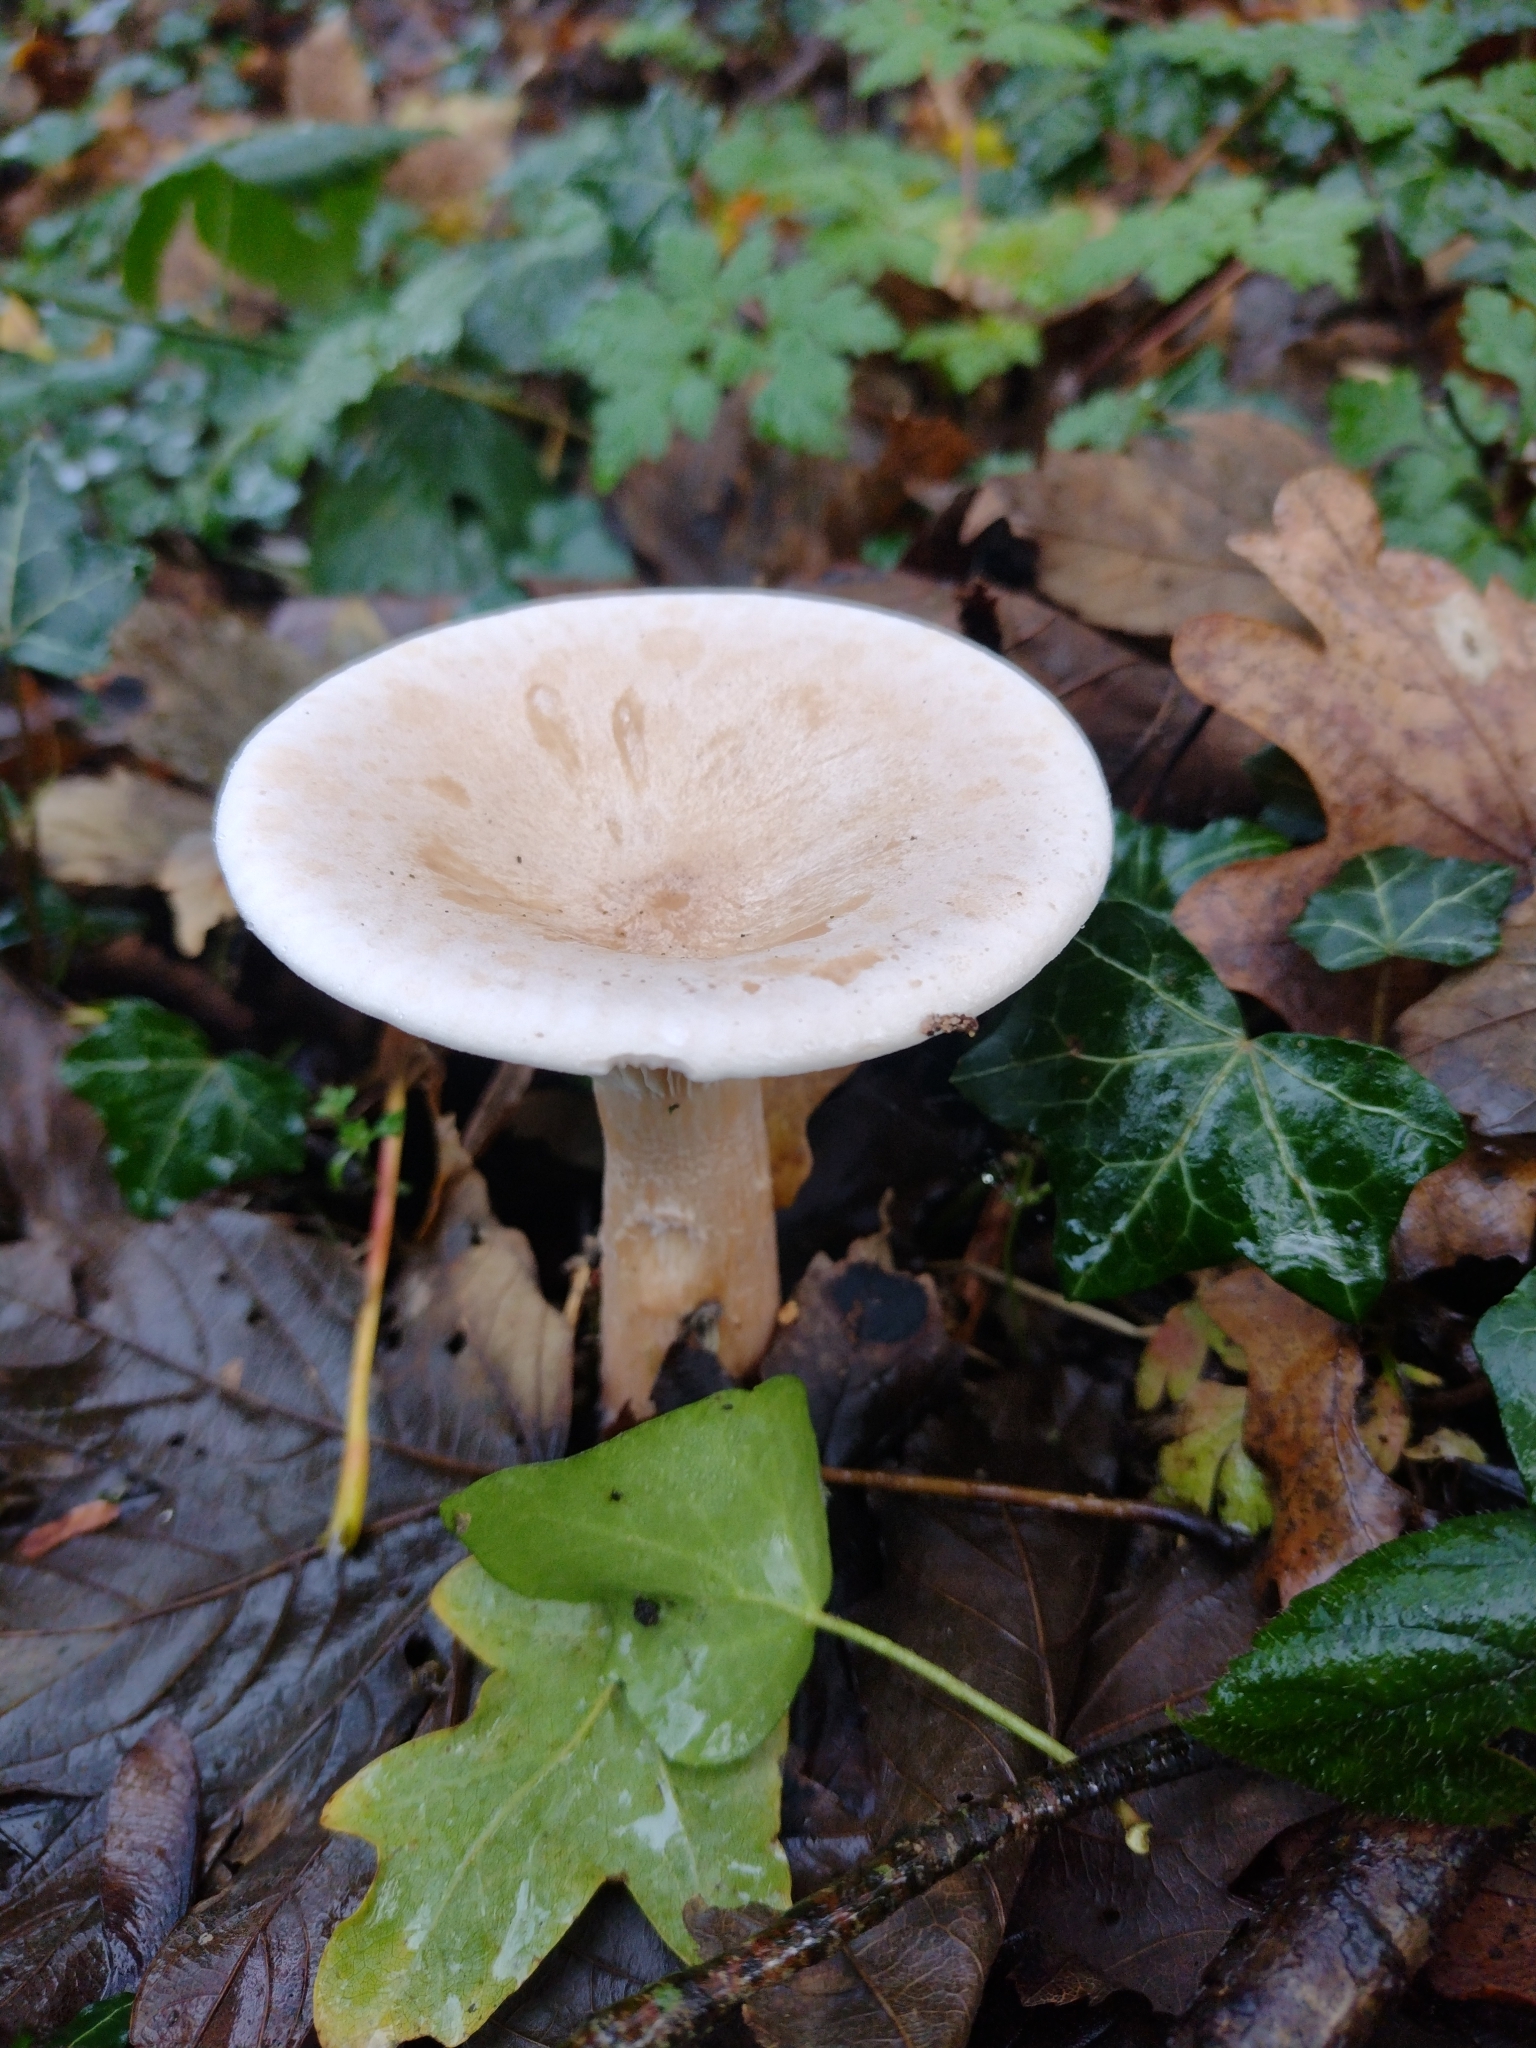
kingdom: Fungi
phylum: Basidiomycota
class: Agaricomycetes
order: Agaricales
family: Tricholomataceae
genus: Infundibulicybe
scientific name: Infundibulicybe geotropa
